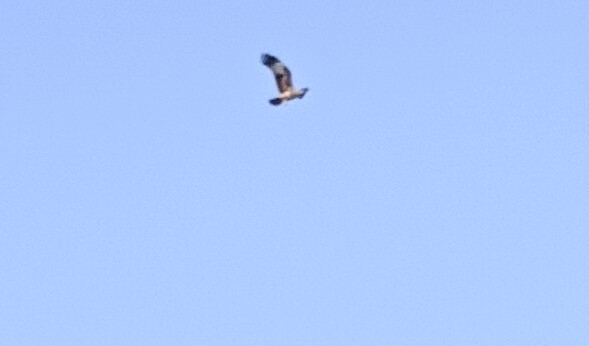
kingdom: Animalia
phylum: Chordata
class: Aves
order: Accipitriformes
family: Accipitridae
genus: Haliastur
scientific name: Haliastur indus
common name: Brahminy kite
